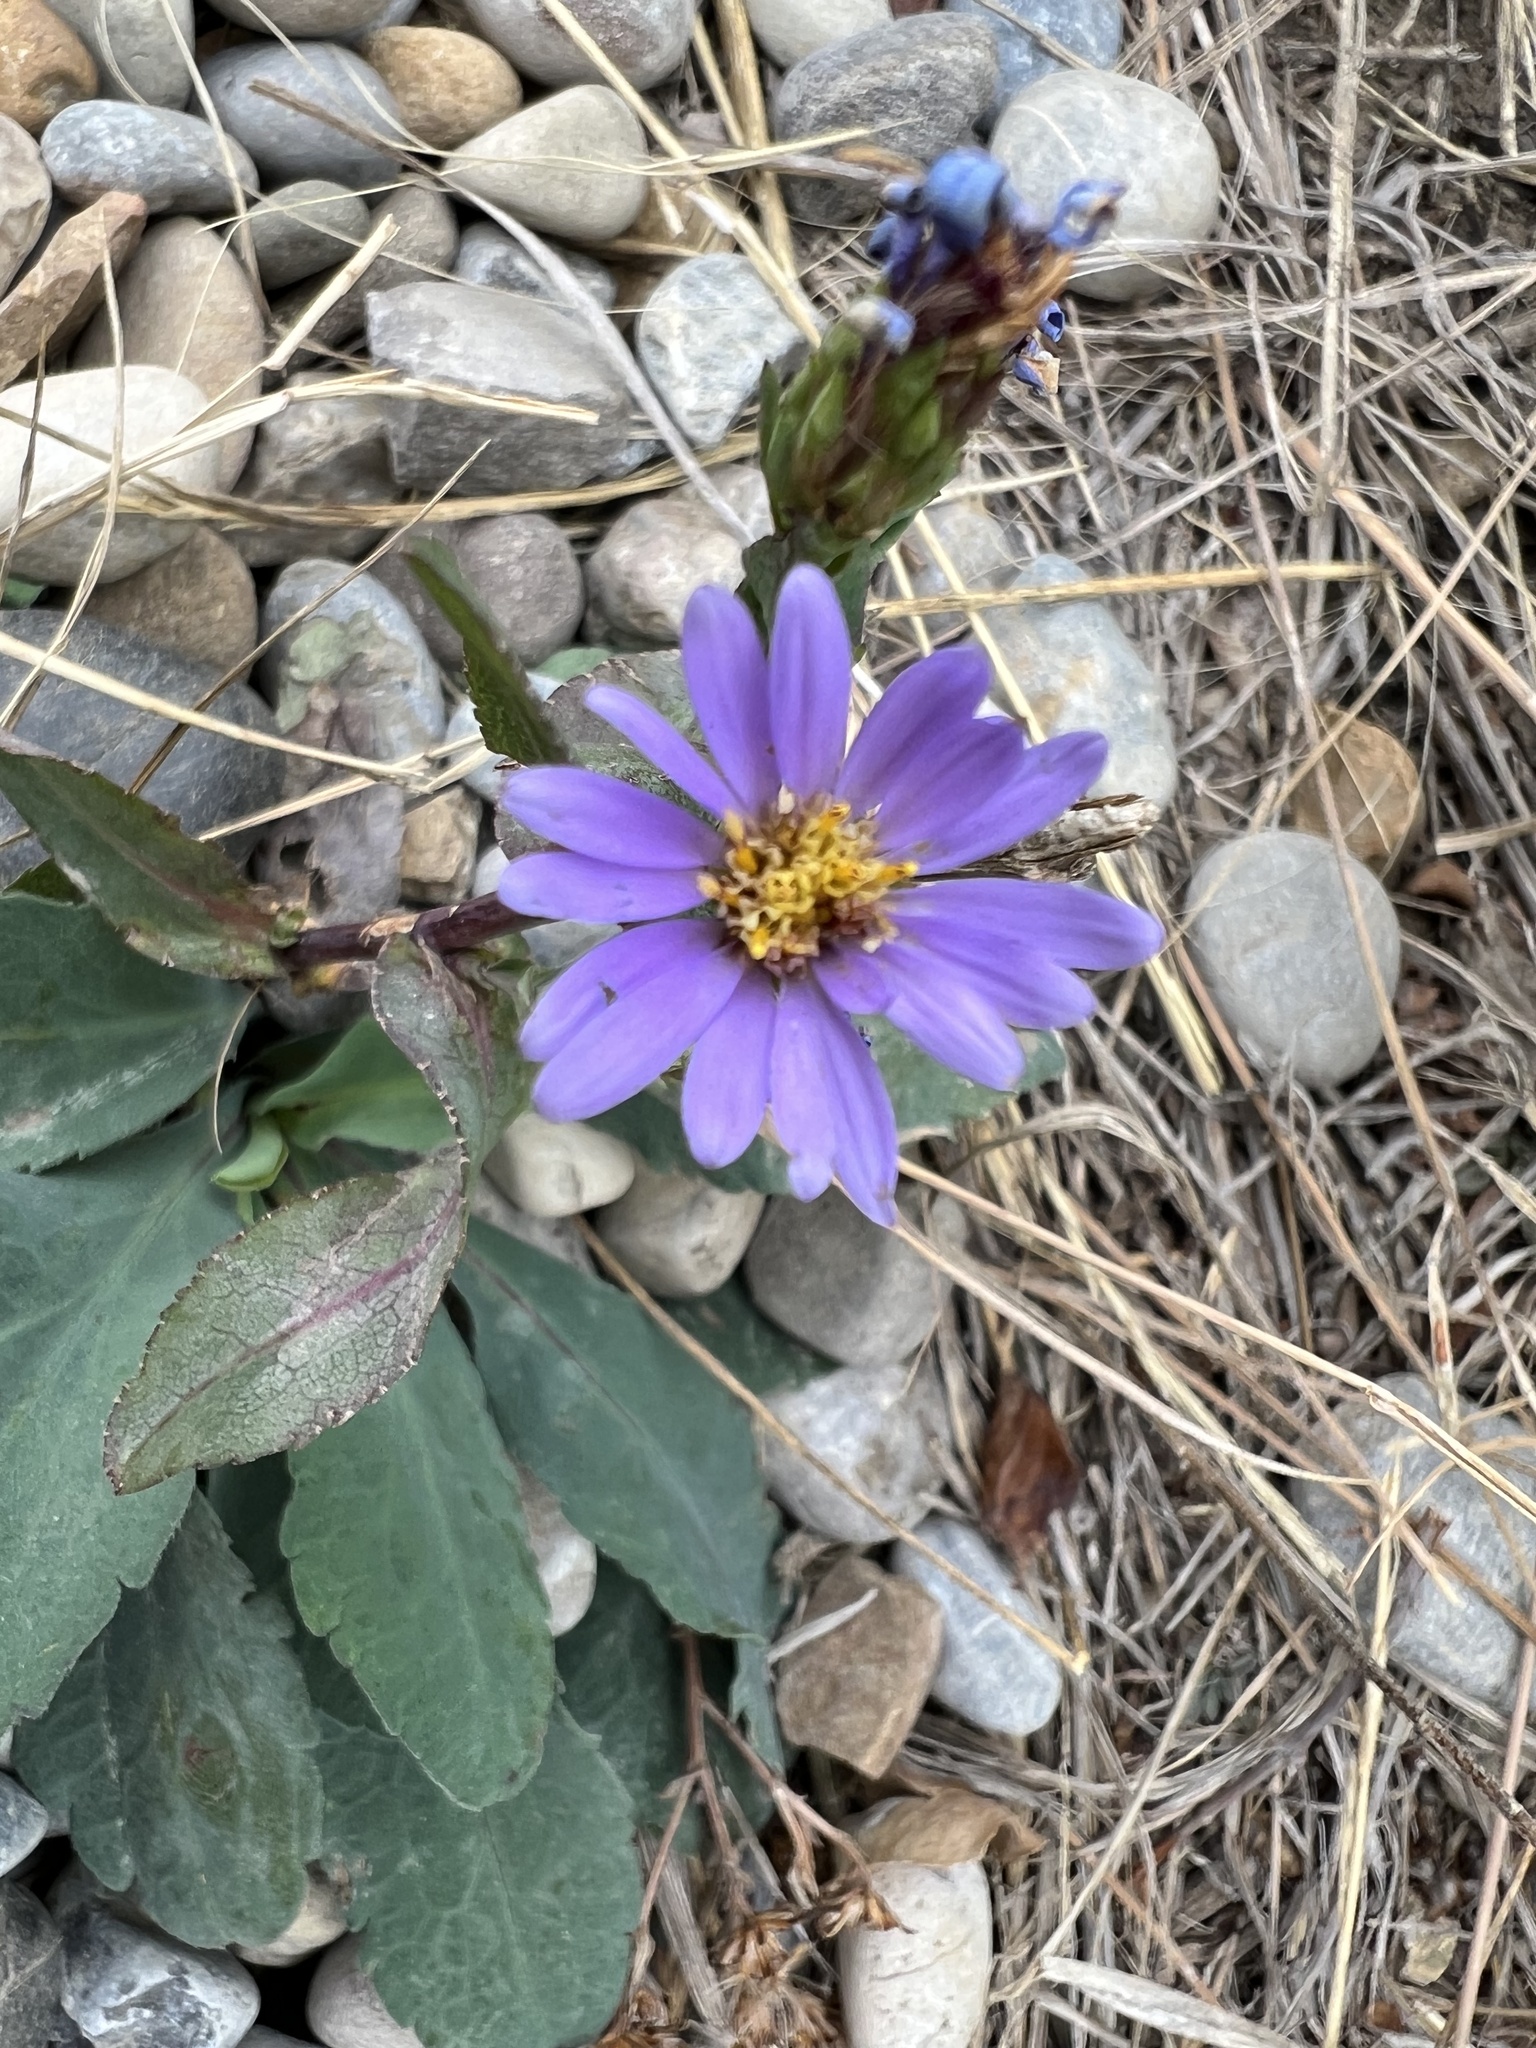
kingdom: Plantae
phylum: Tracheophyta
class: Magnoliopsida
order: Asterales
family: Asteraceae
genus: Symphyotrichum
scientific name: Symphyotrichum laeve
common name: Glaucous aster
